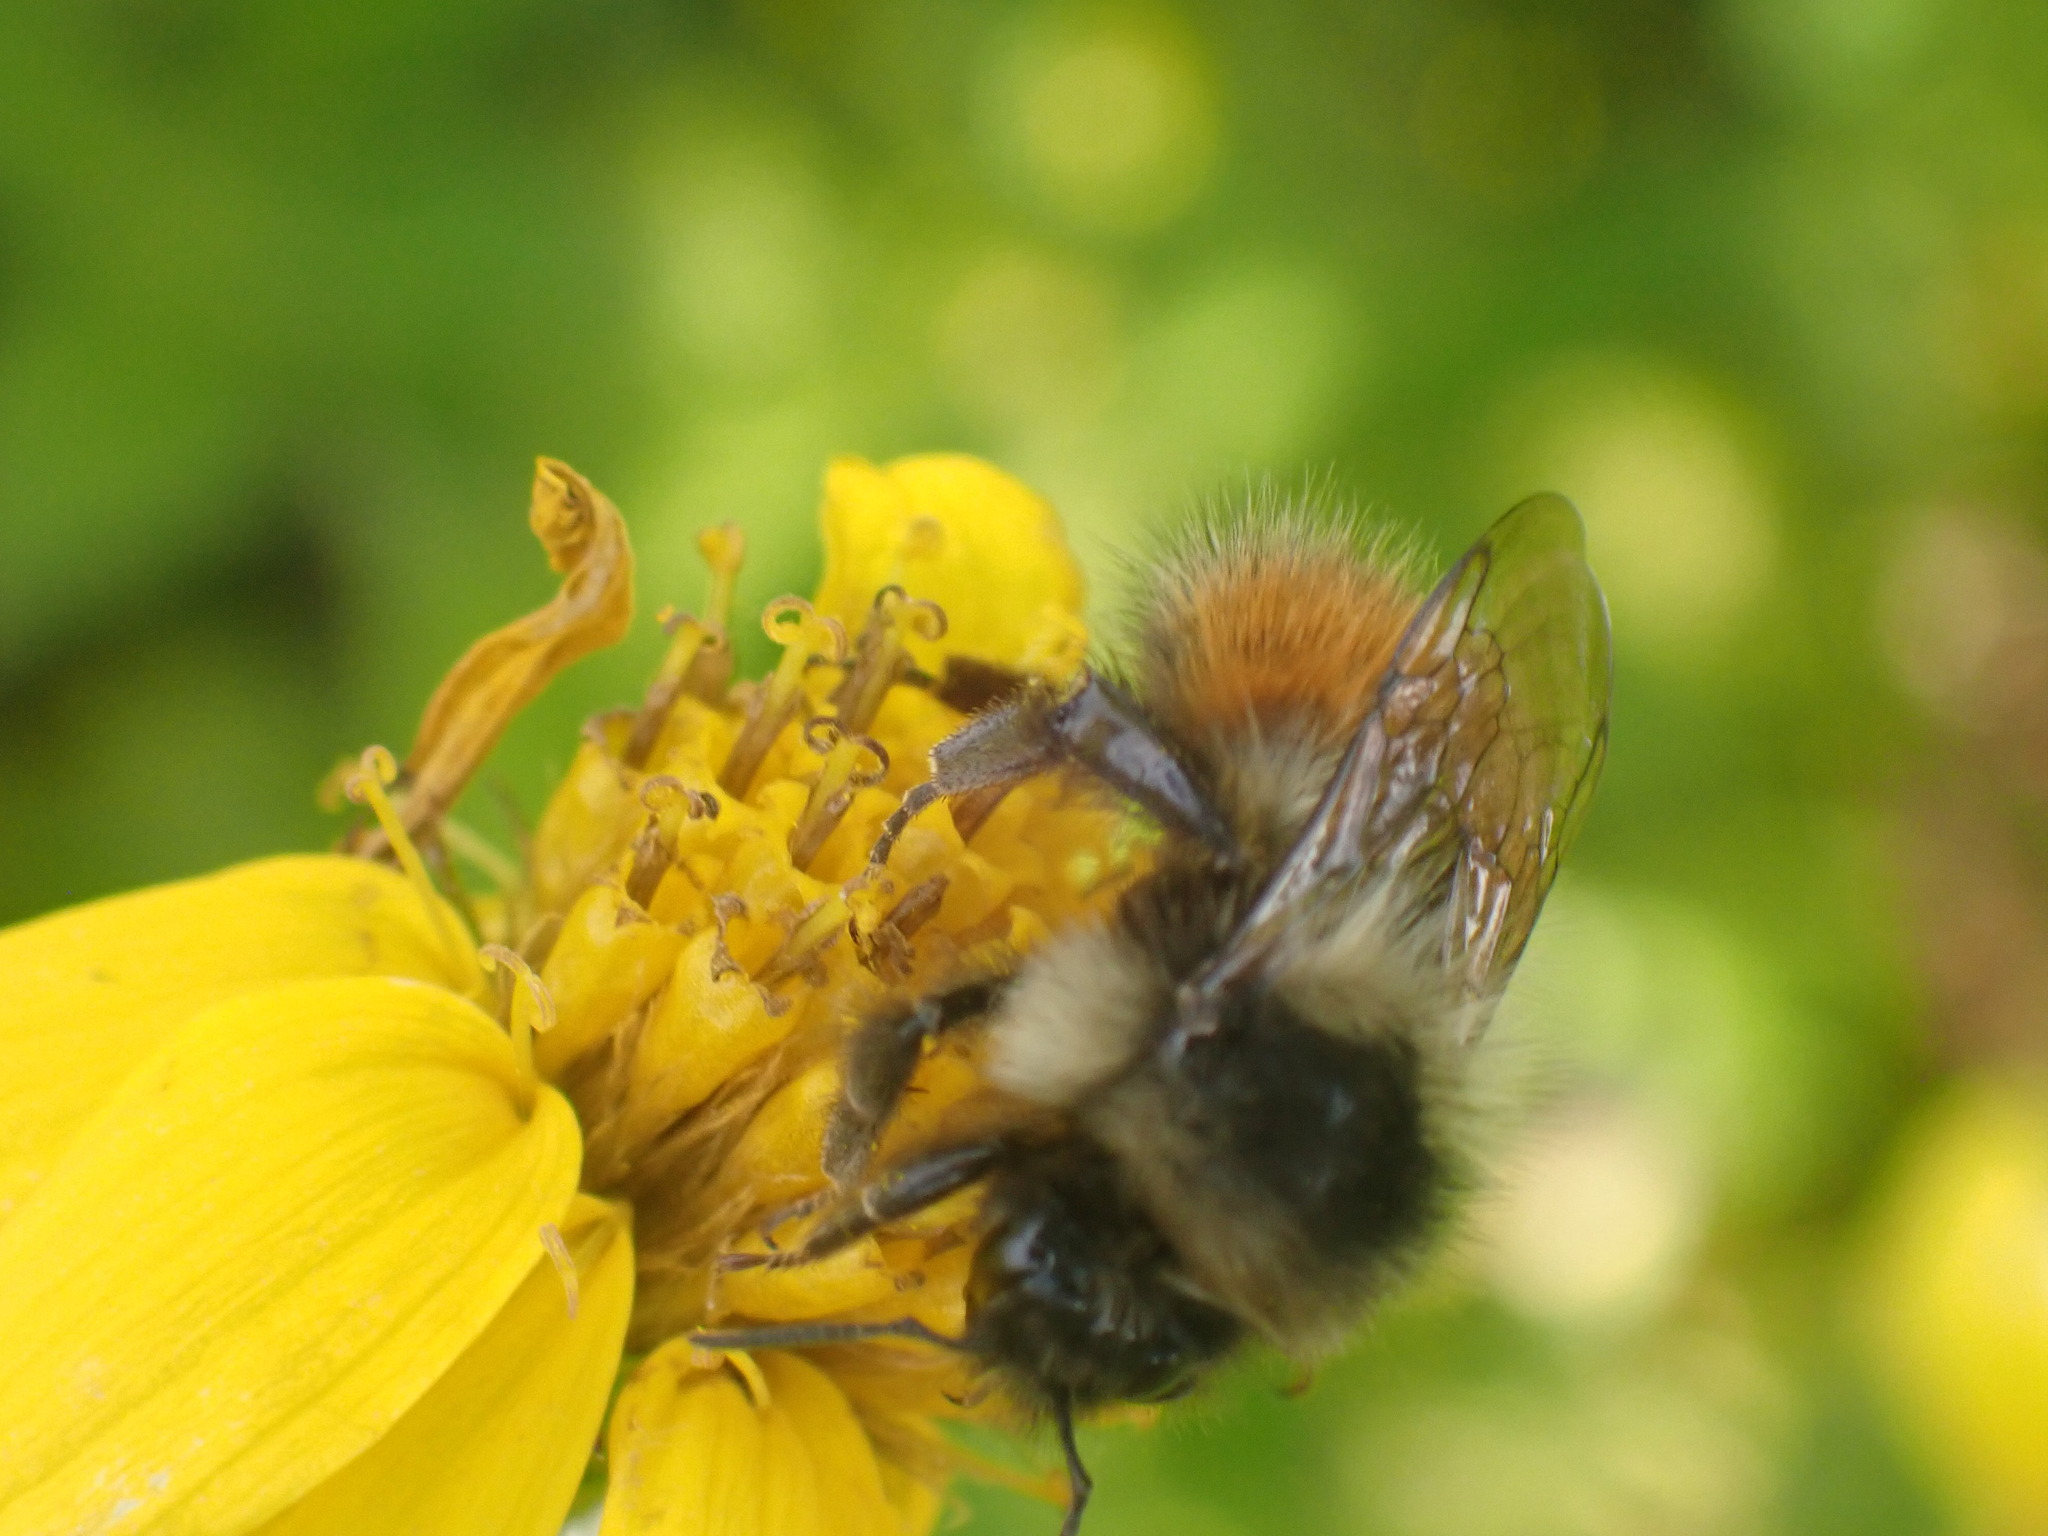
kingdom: Animalia
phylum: Arthropoda
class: Insecta
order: Hymenoptera
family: Apidae
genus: Bombus
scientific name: Bombus melanopygus
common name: Black tail bumble bee
